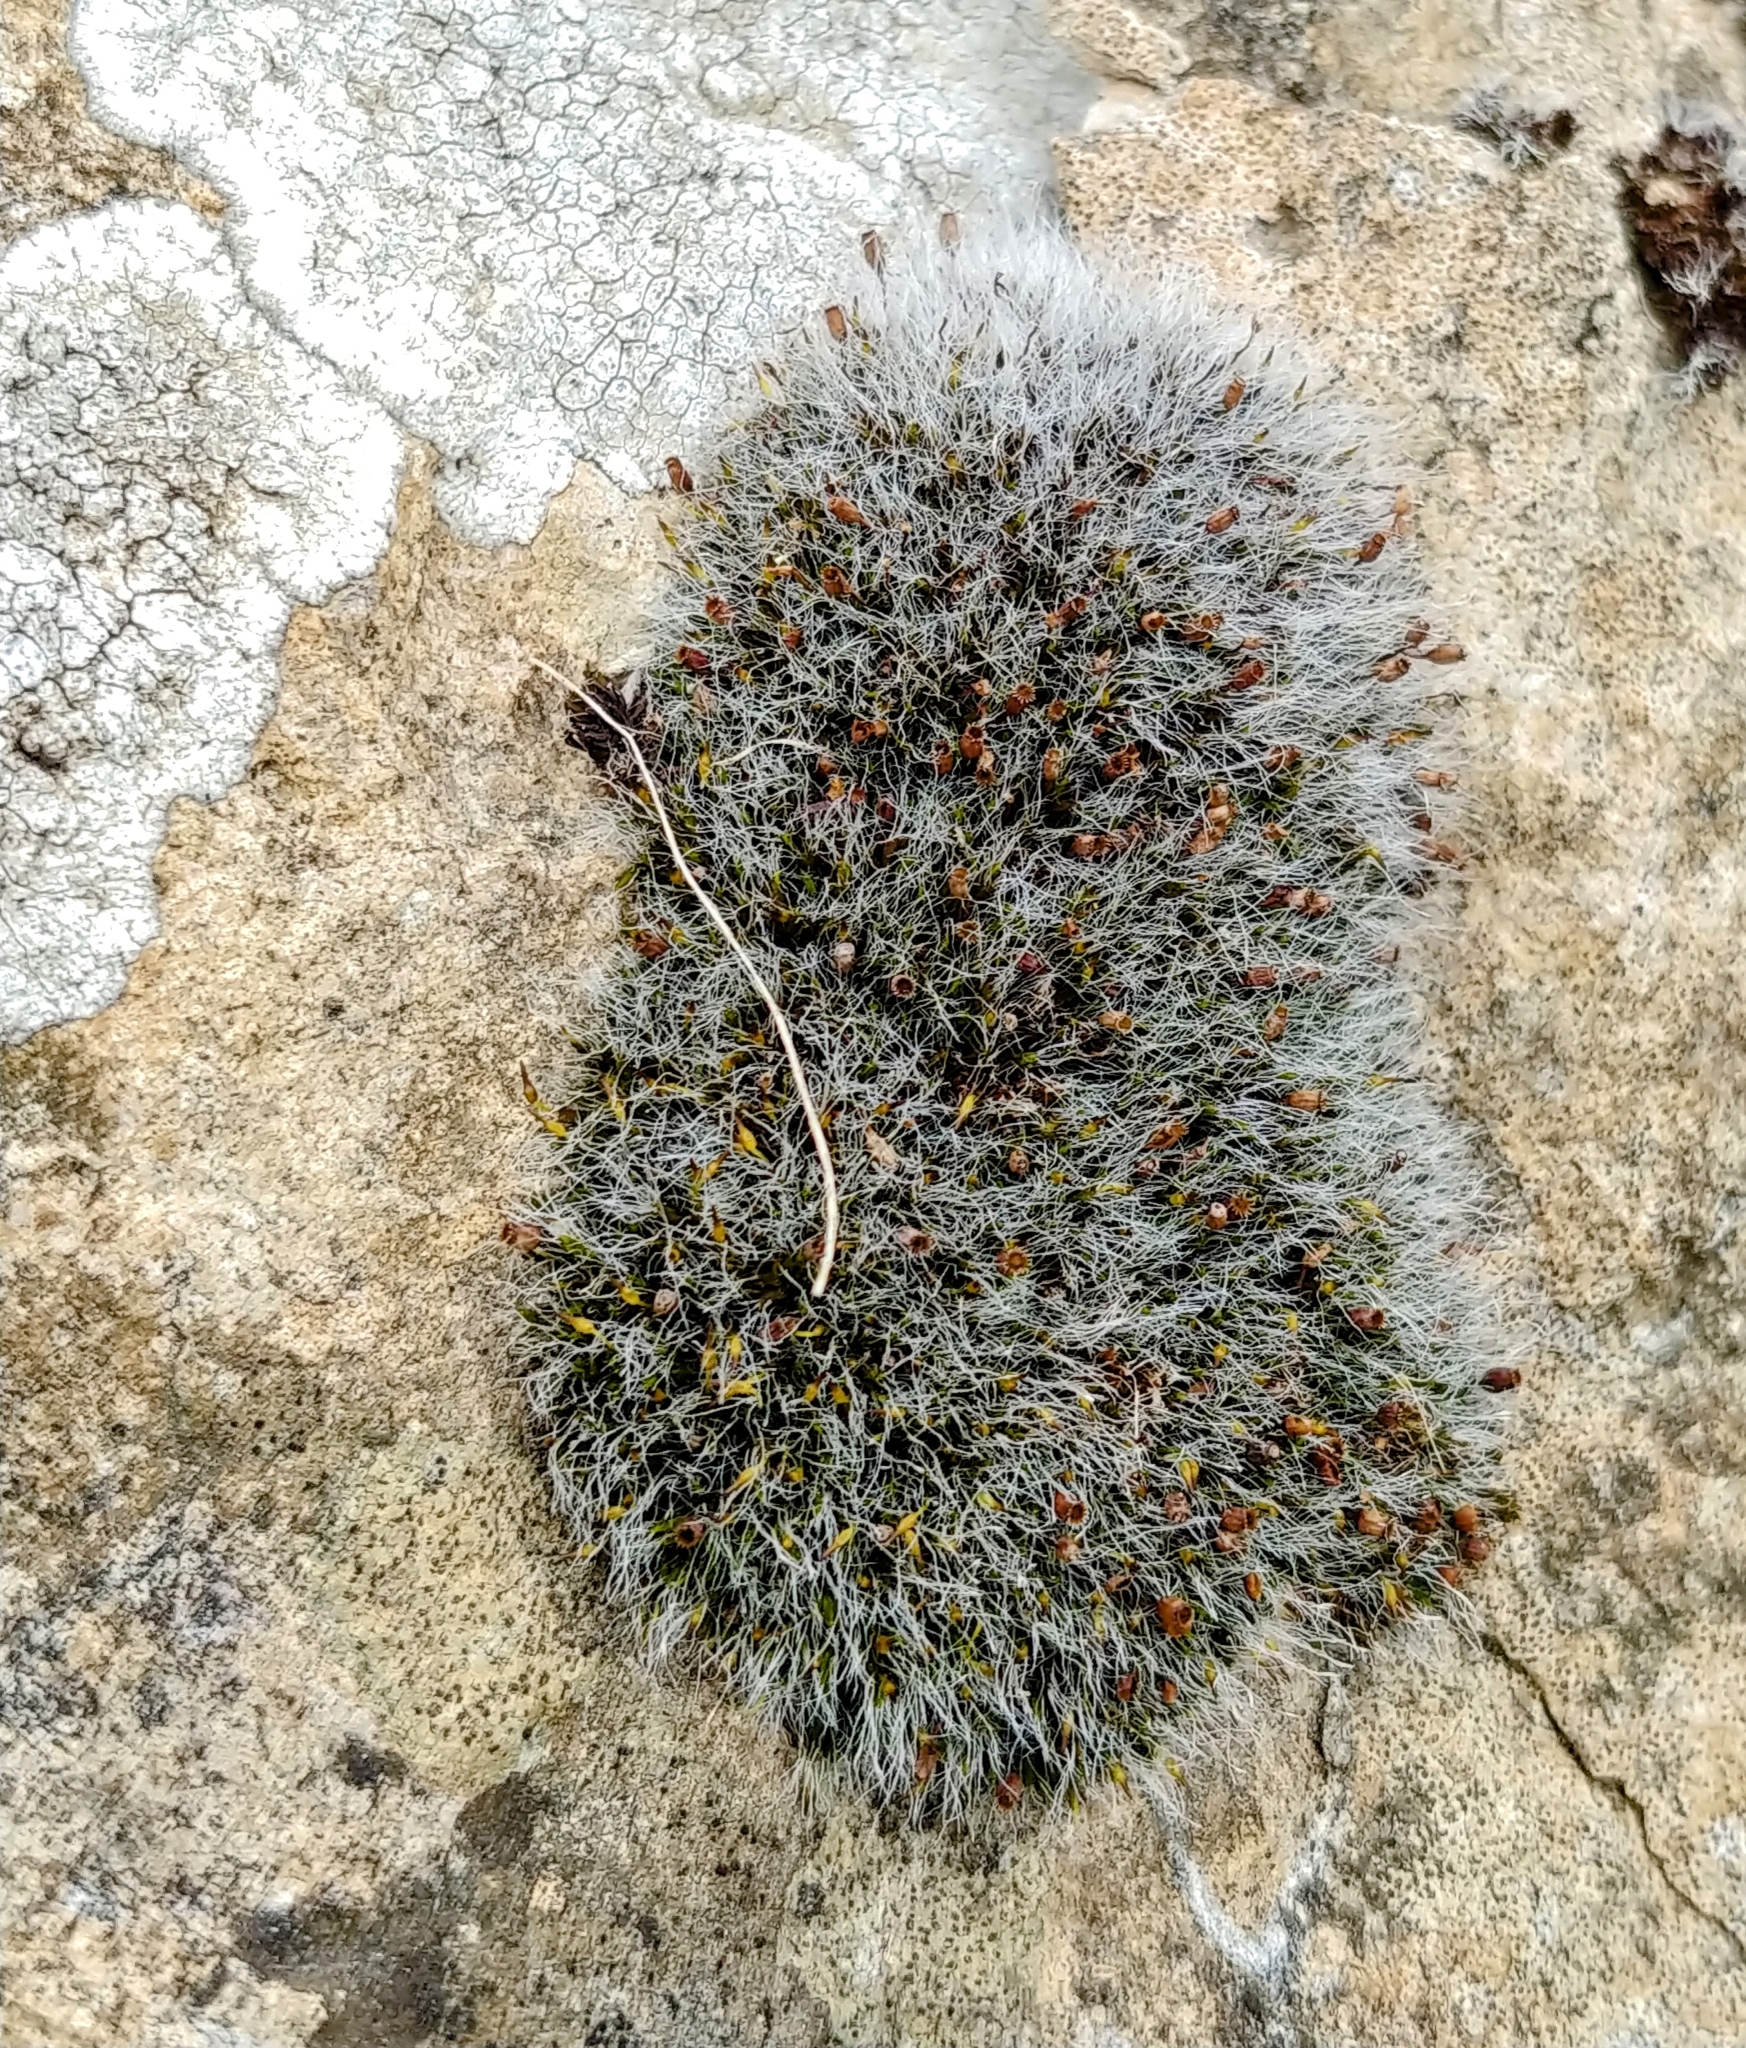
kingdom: Plantae
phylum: Bryophyta
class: Bryopsida
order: Grimmiales
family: Grimmiaceae
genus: Grimmia
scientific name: Grimmia pulvinata
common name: Grey-cushioned grimmia
